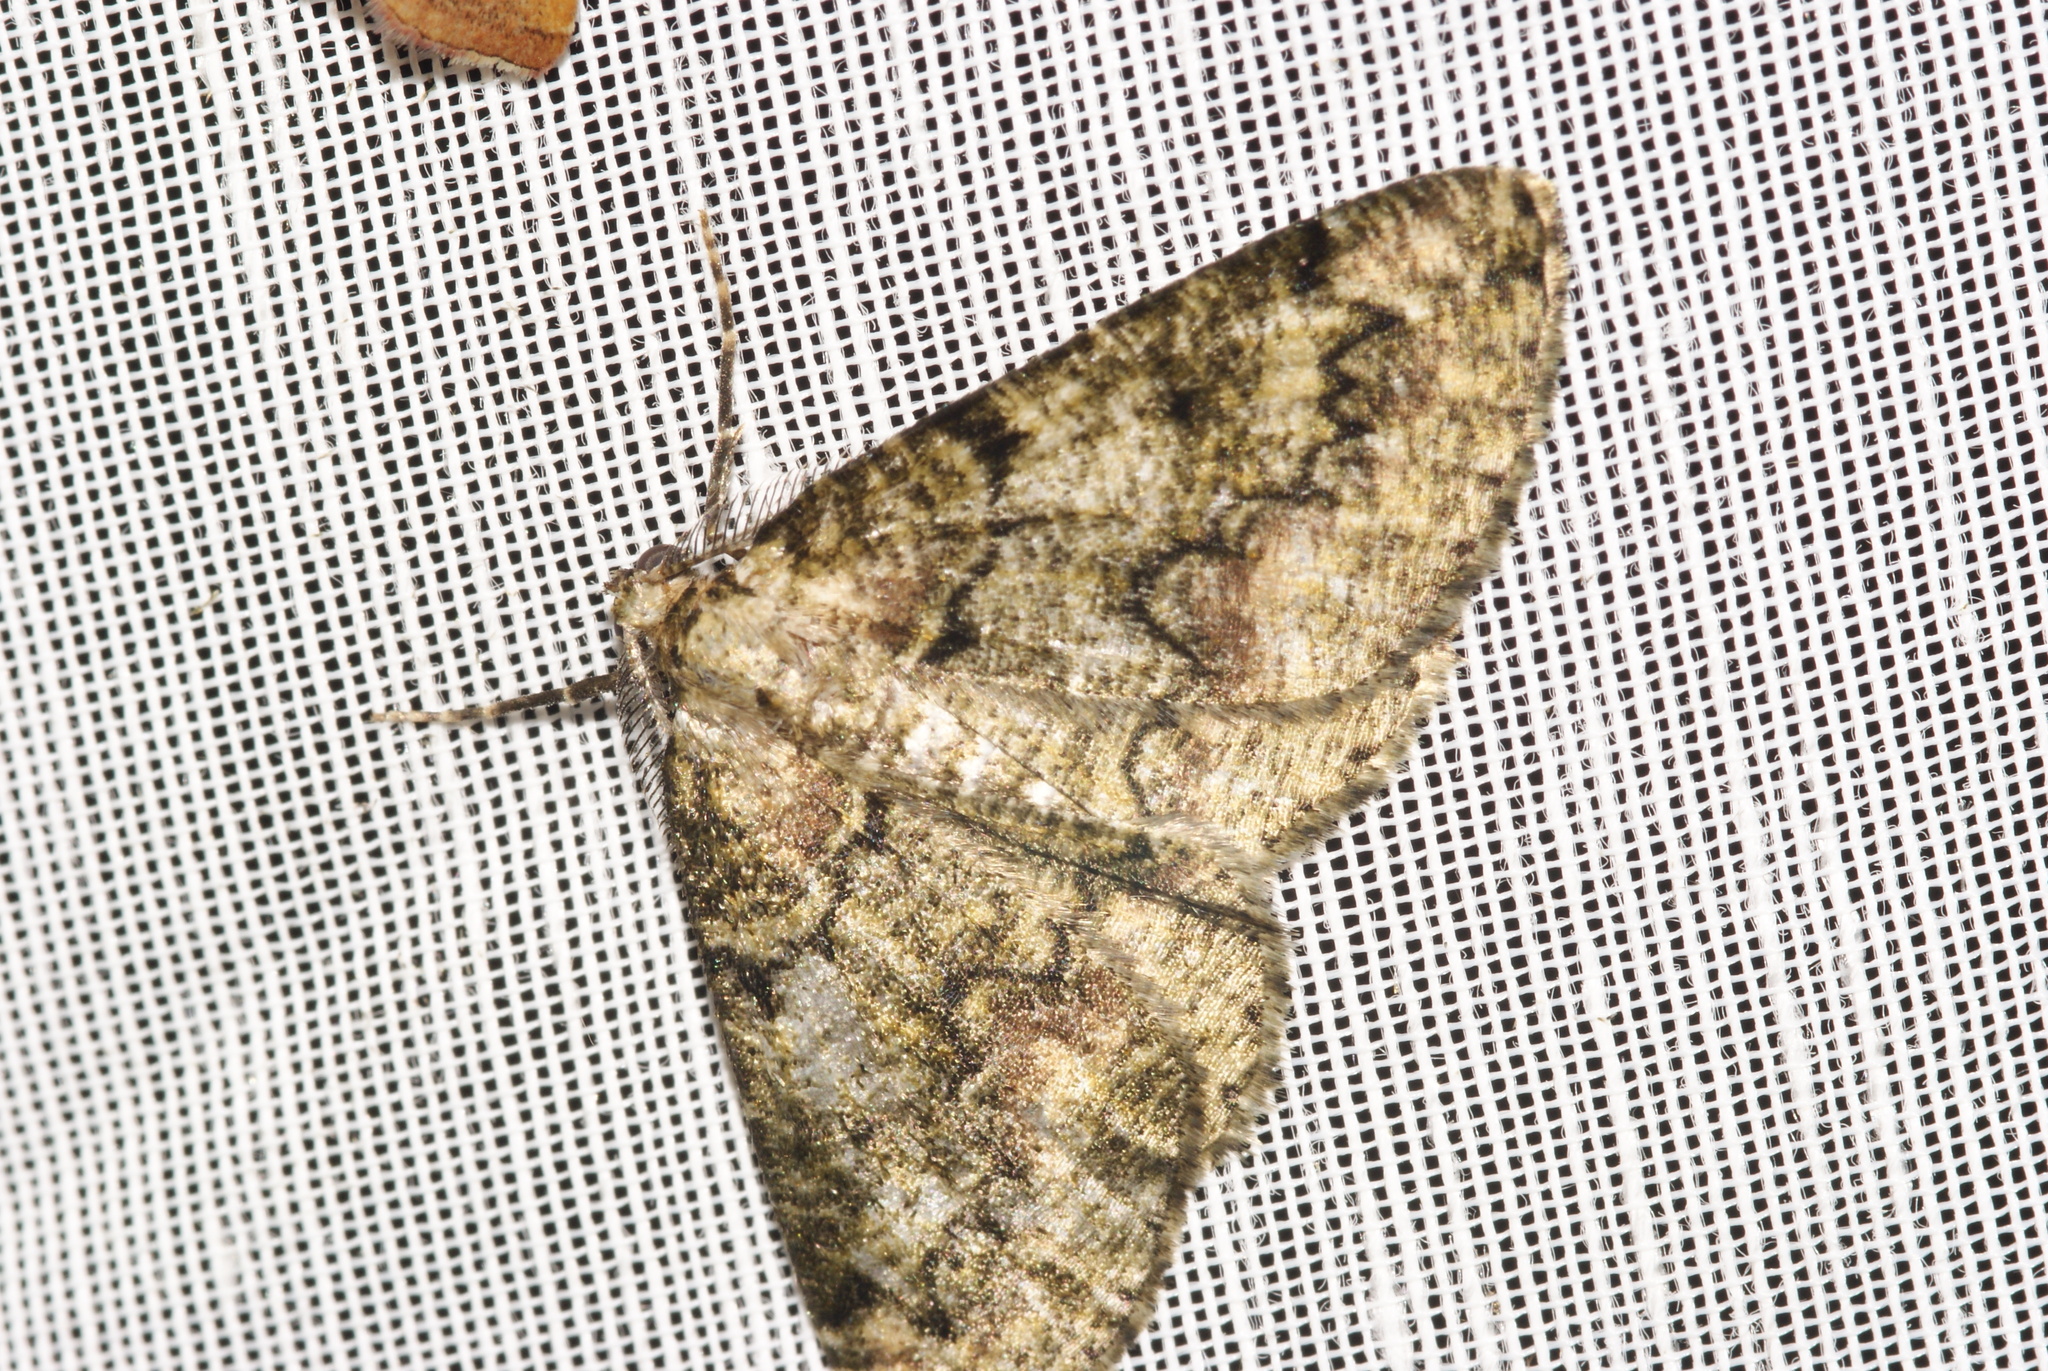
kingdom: Animalia
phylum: Arthropoda
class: Insecta
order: Lepidoptera
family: Geometridae
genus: Cleorodes
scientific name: Cleorodes lichenaria
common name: Brussels lace
